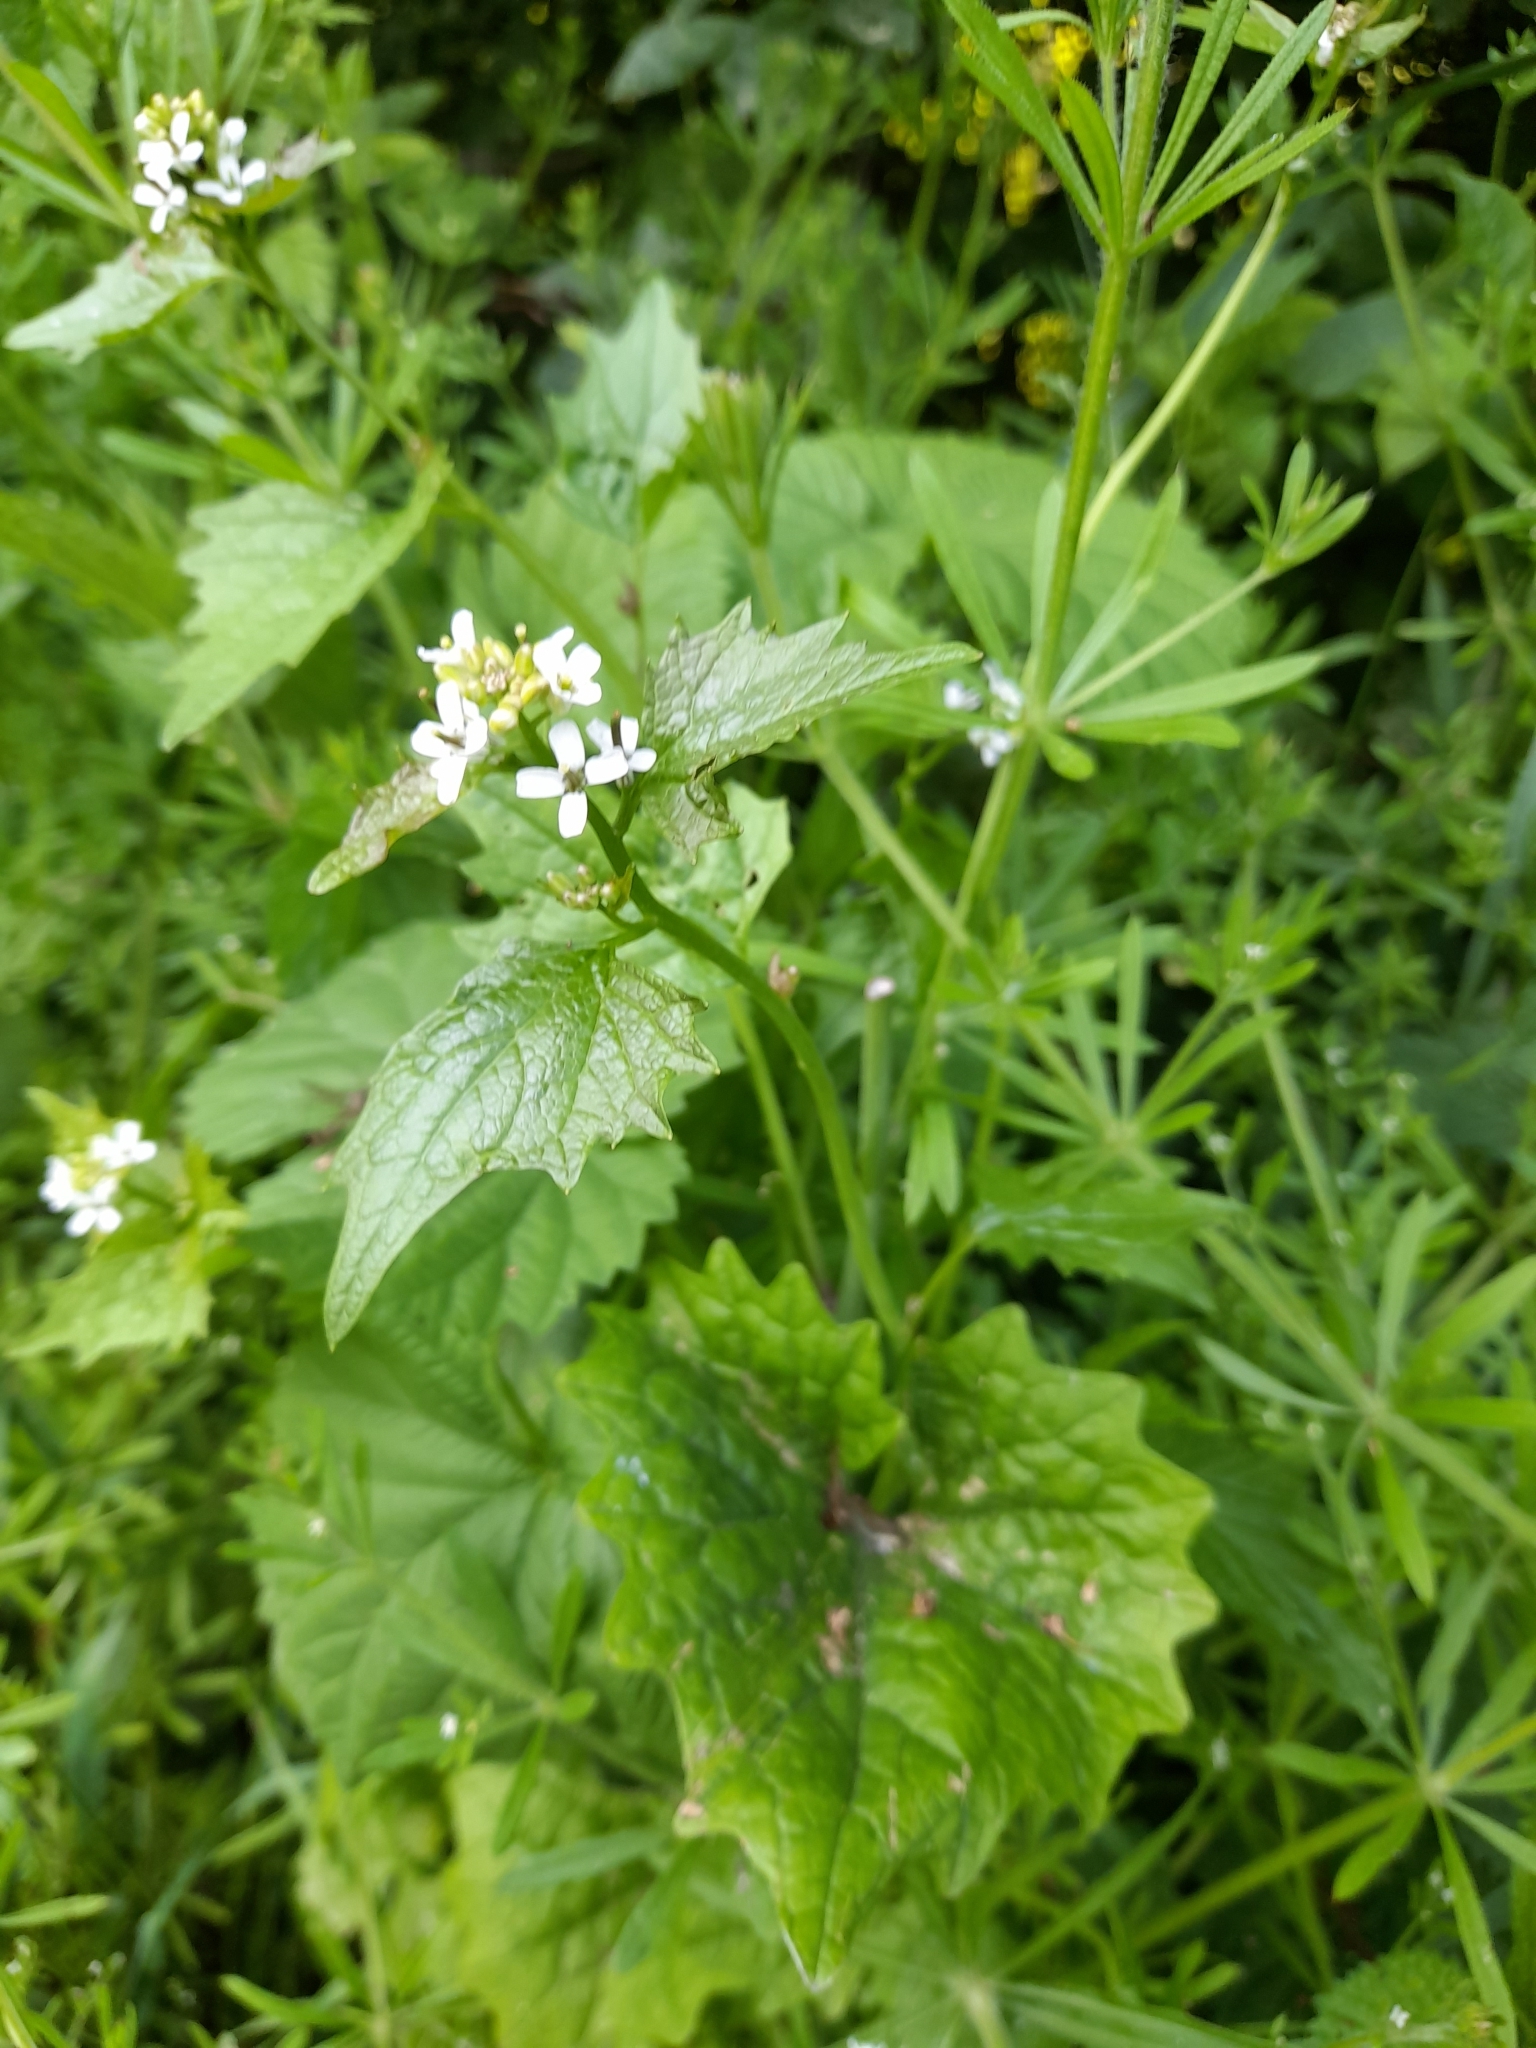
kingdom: Plantae
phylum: Tracheophyta
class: Magnoliopsida
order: Brassicales
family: Brassicaceae
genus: Alliaria
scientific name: Alliaria petiolata
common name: Garlic mustard
